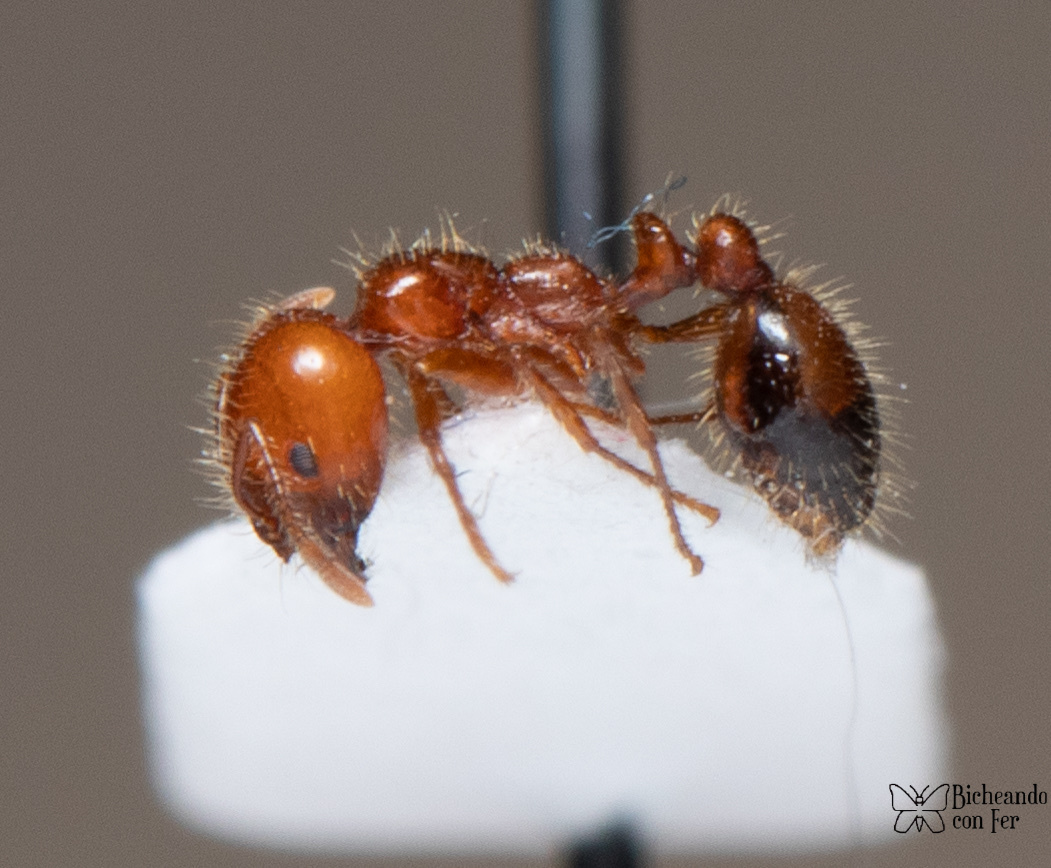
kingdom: Animalia
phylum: Arthropoda
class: Insecta
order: Hymenoptera
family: Formicidae
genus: Solenopsis
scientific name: Solenopsis xyloni
